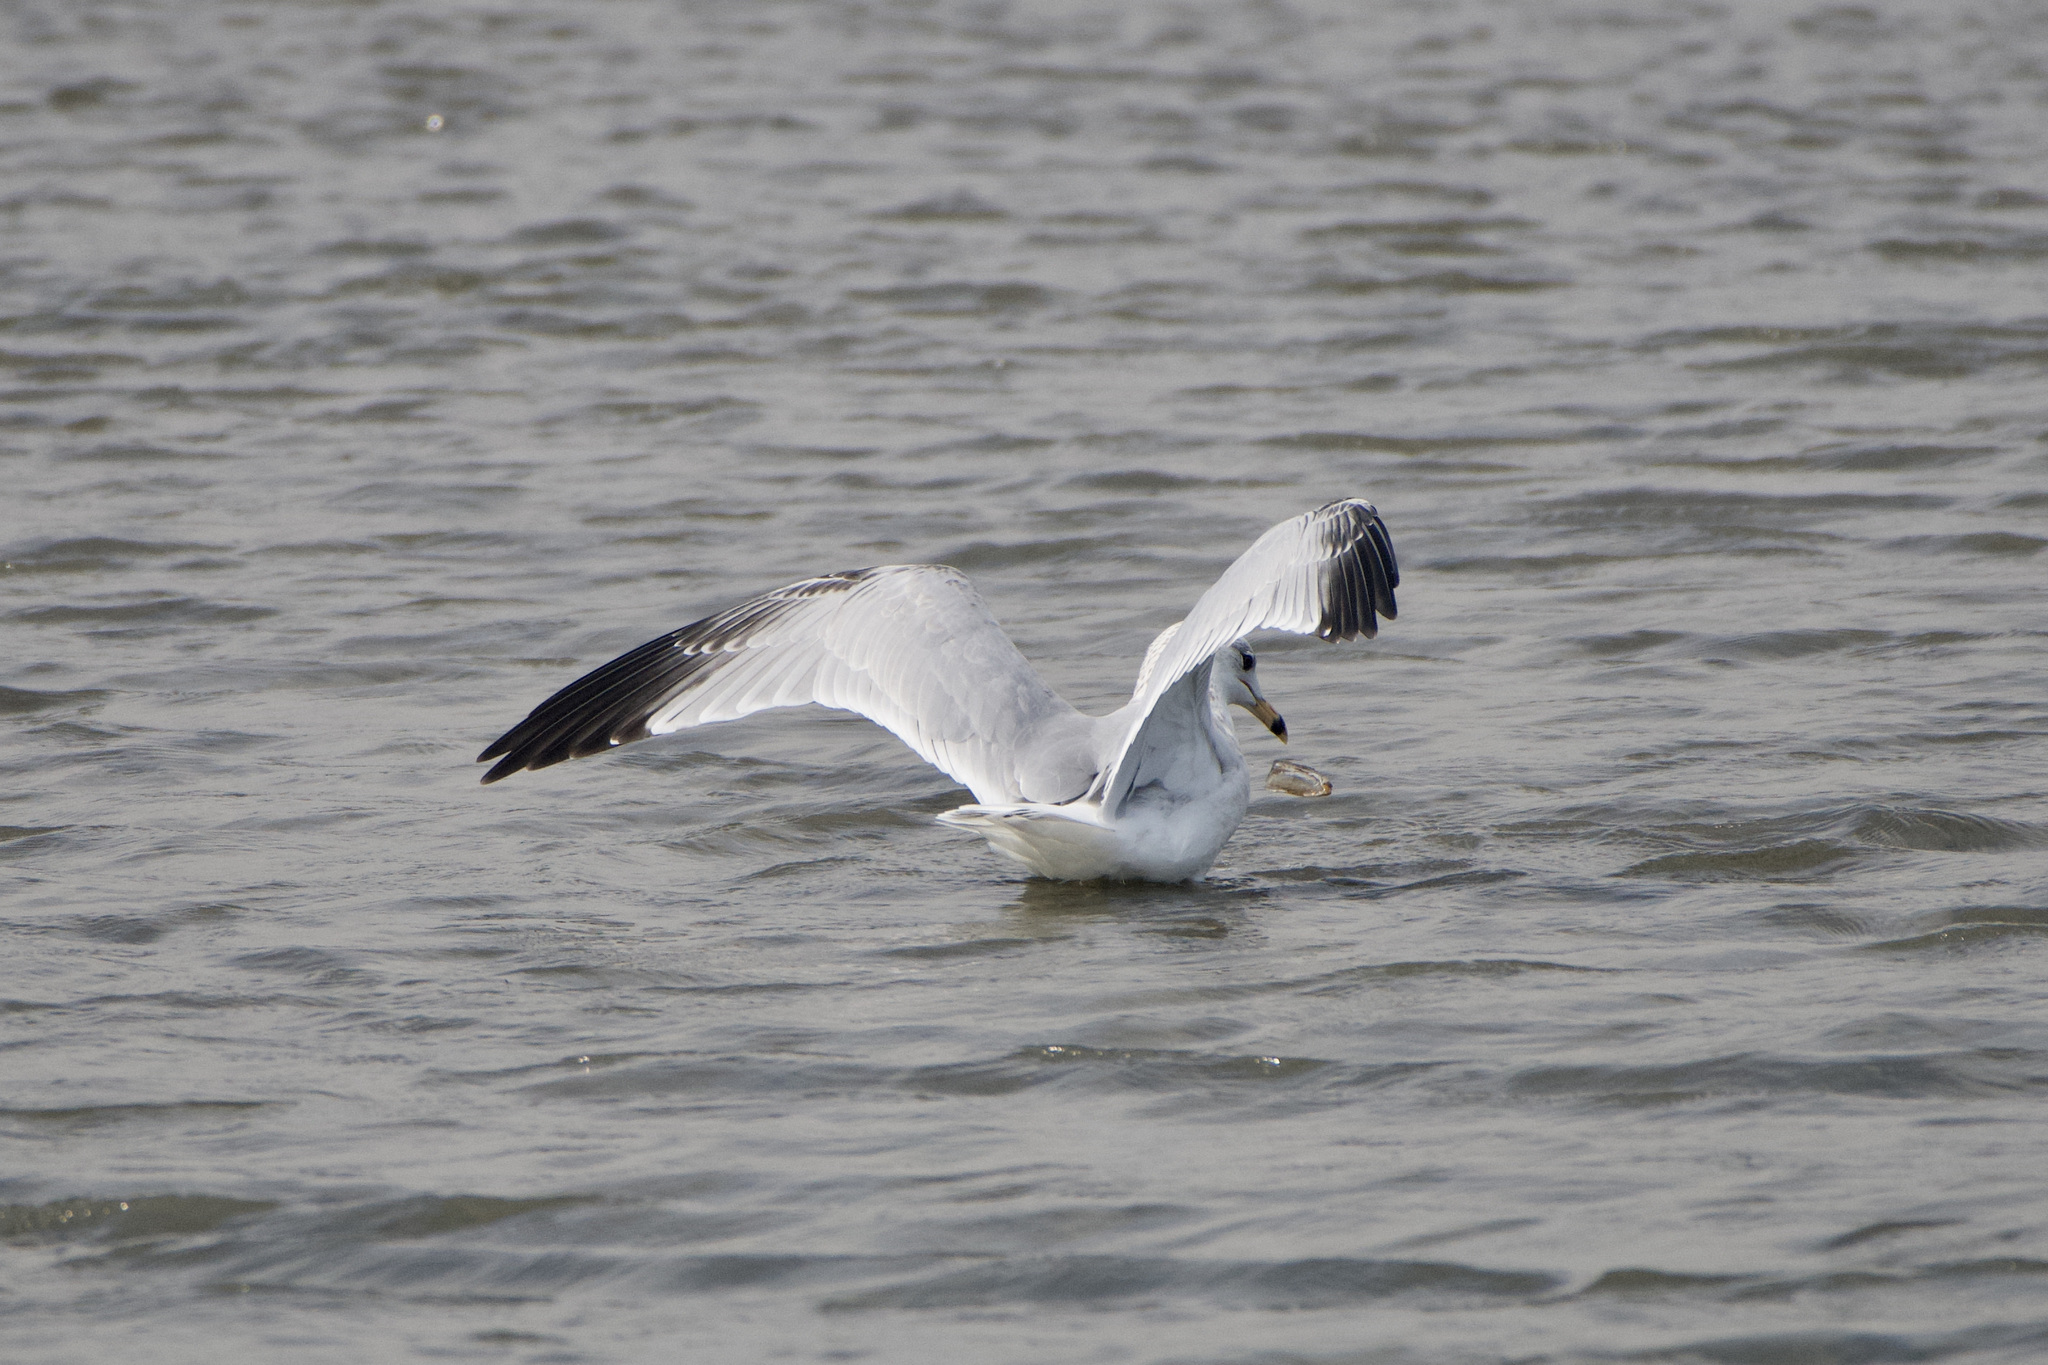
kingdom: Animalia
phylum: Chordata
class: Aves
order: Charadriiformes
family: Laridae
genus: Larus
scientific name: Larus delawarensis
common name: Ring-billed gull
